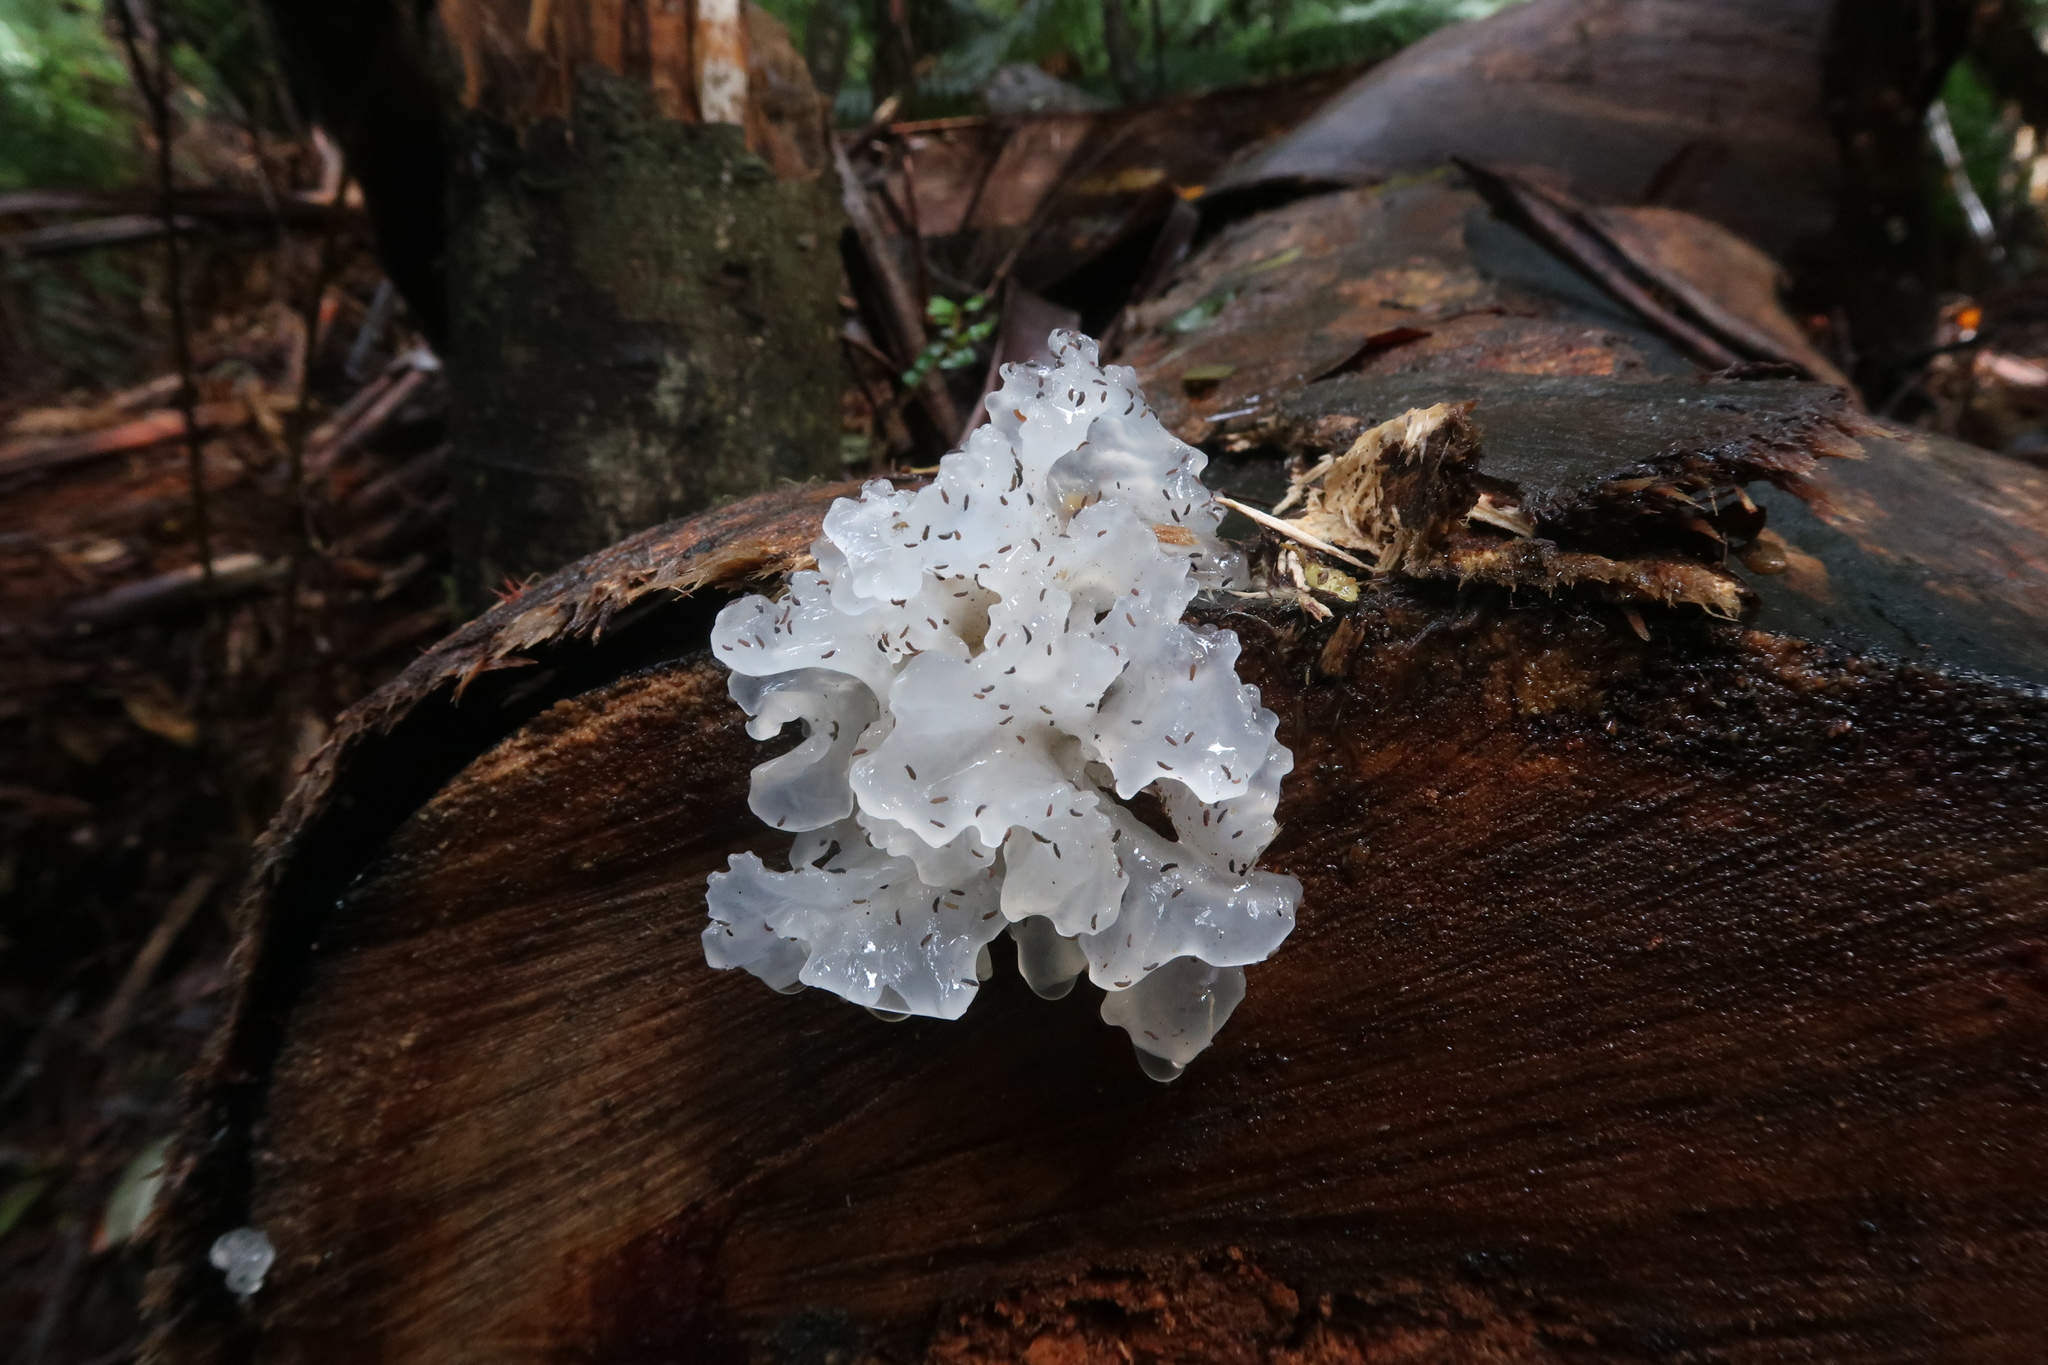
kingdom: Fungi
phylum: Basidiomycota
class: Tremellomycetes
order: Tremellales
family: Tremellaceae
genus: Tremella
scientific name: Tremella fuciformis
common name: Snow fungus
